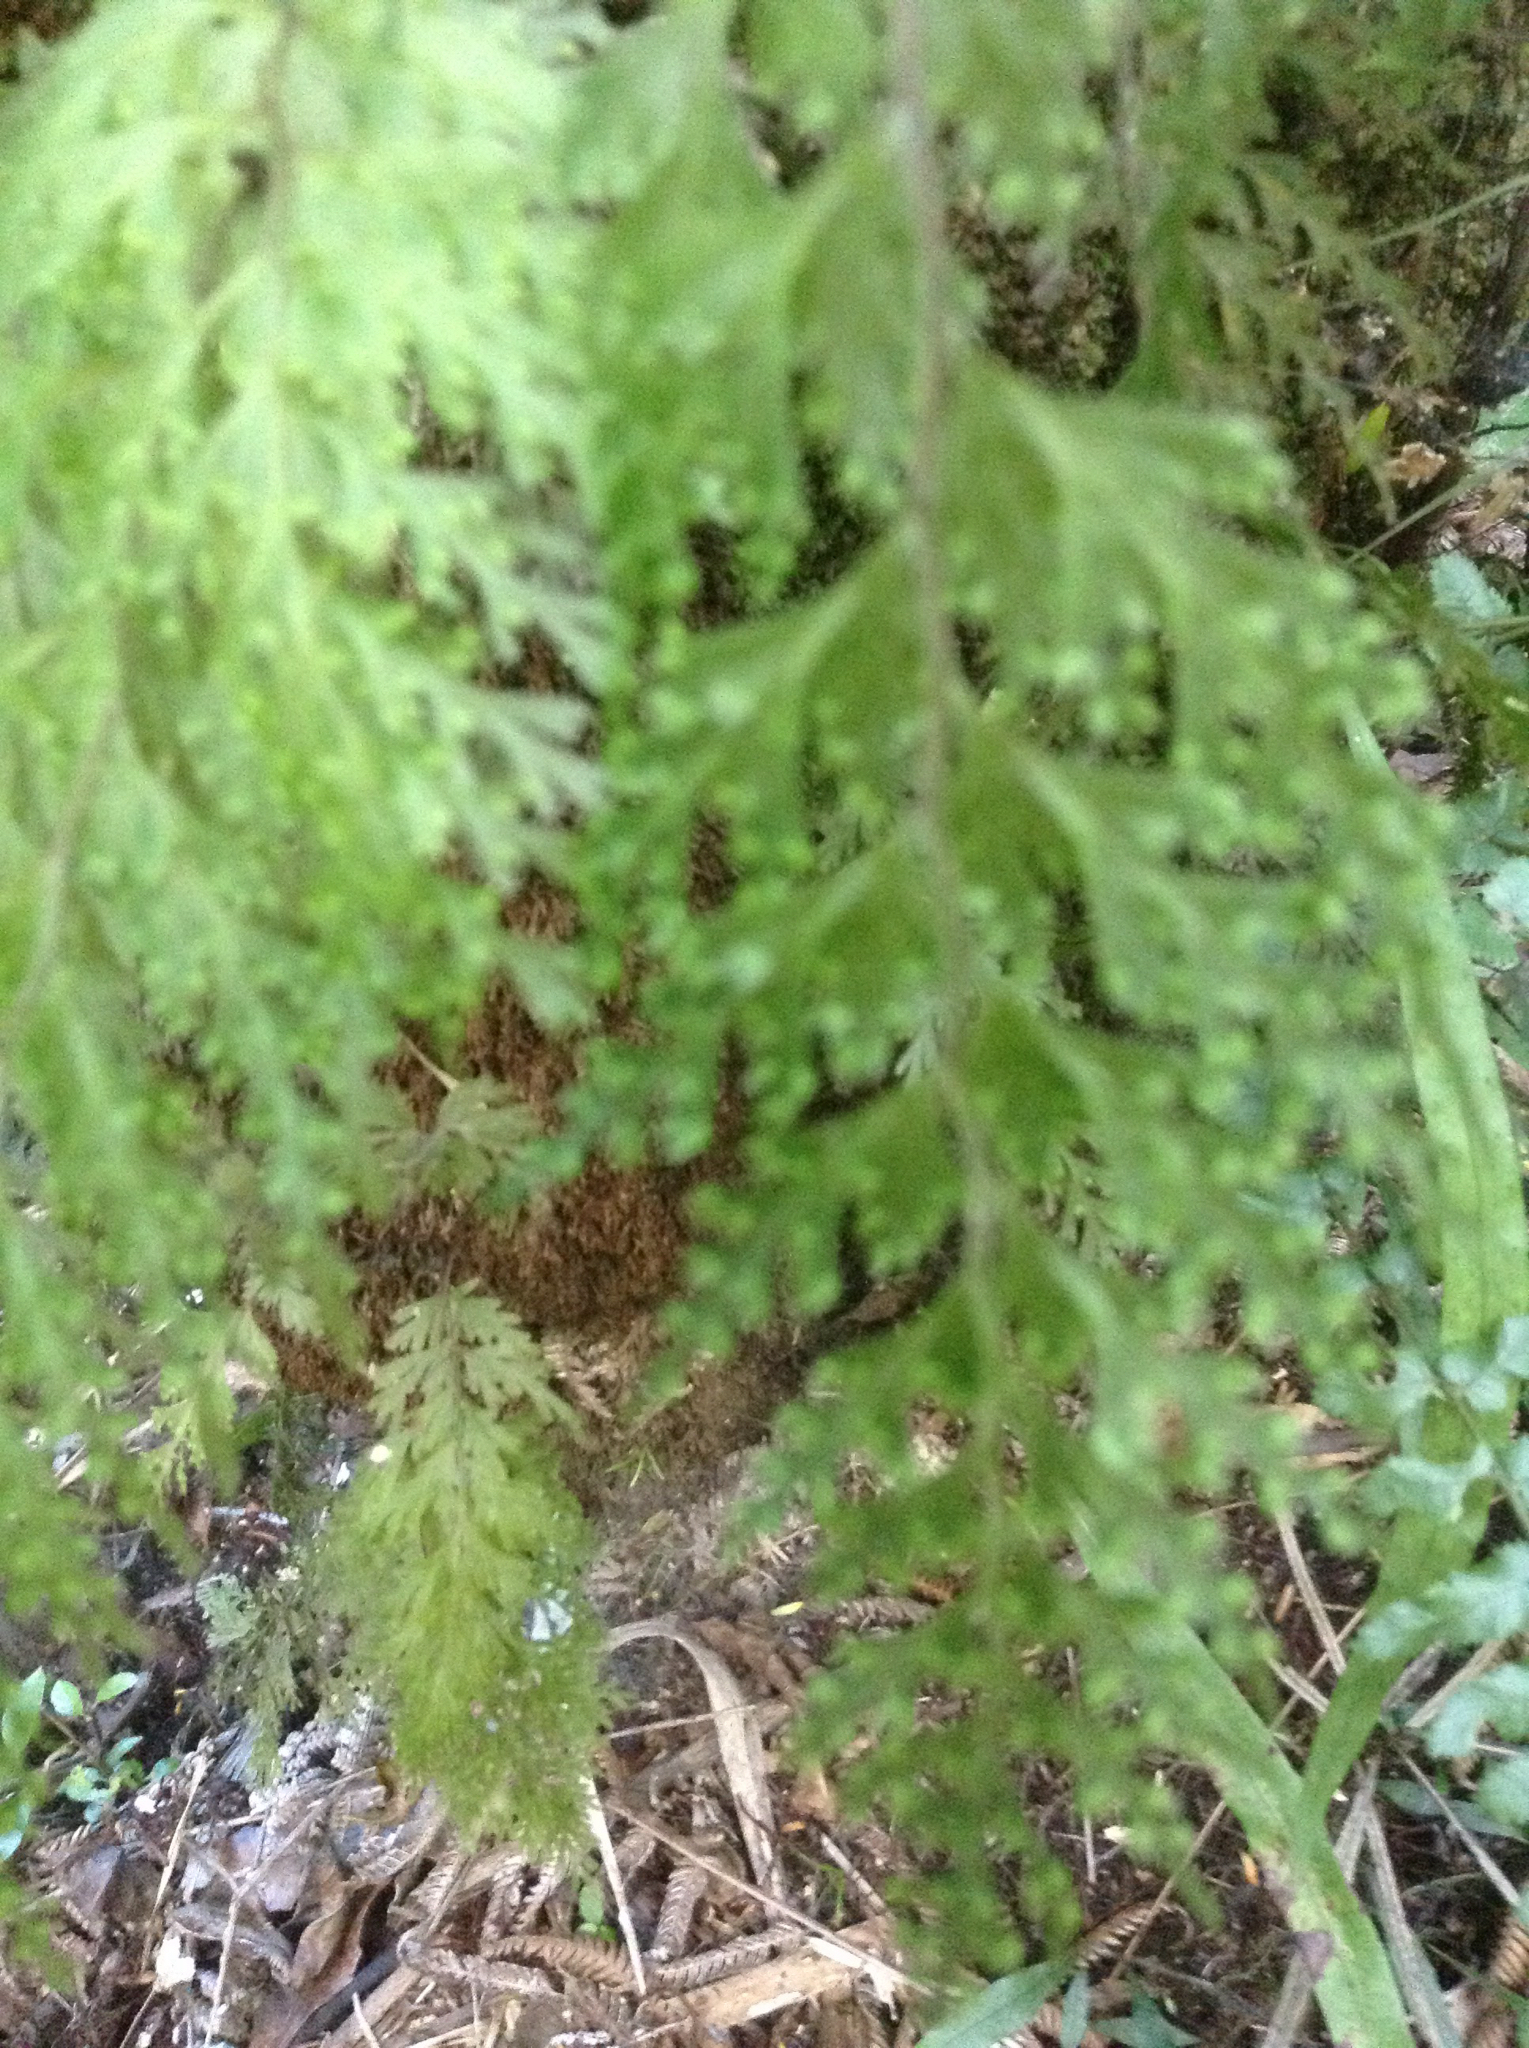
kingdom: Plantae
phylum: Tracheophyta
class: Polypodiopsida
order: Hymenophyllales
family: Hymenophyllaceae
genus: Hymenophyllum
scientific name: Hymenophyllum demissum
